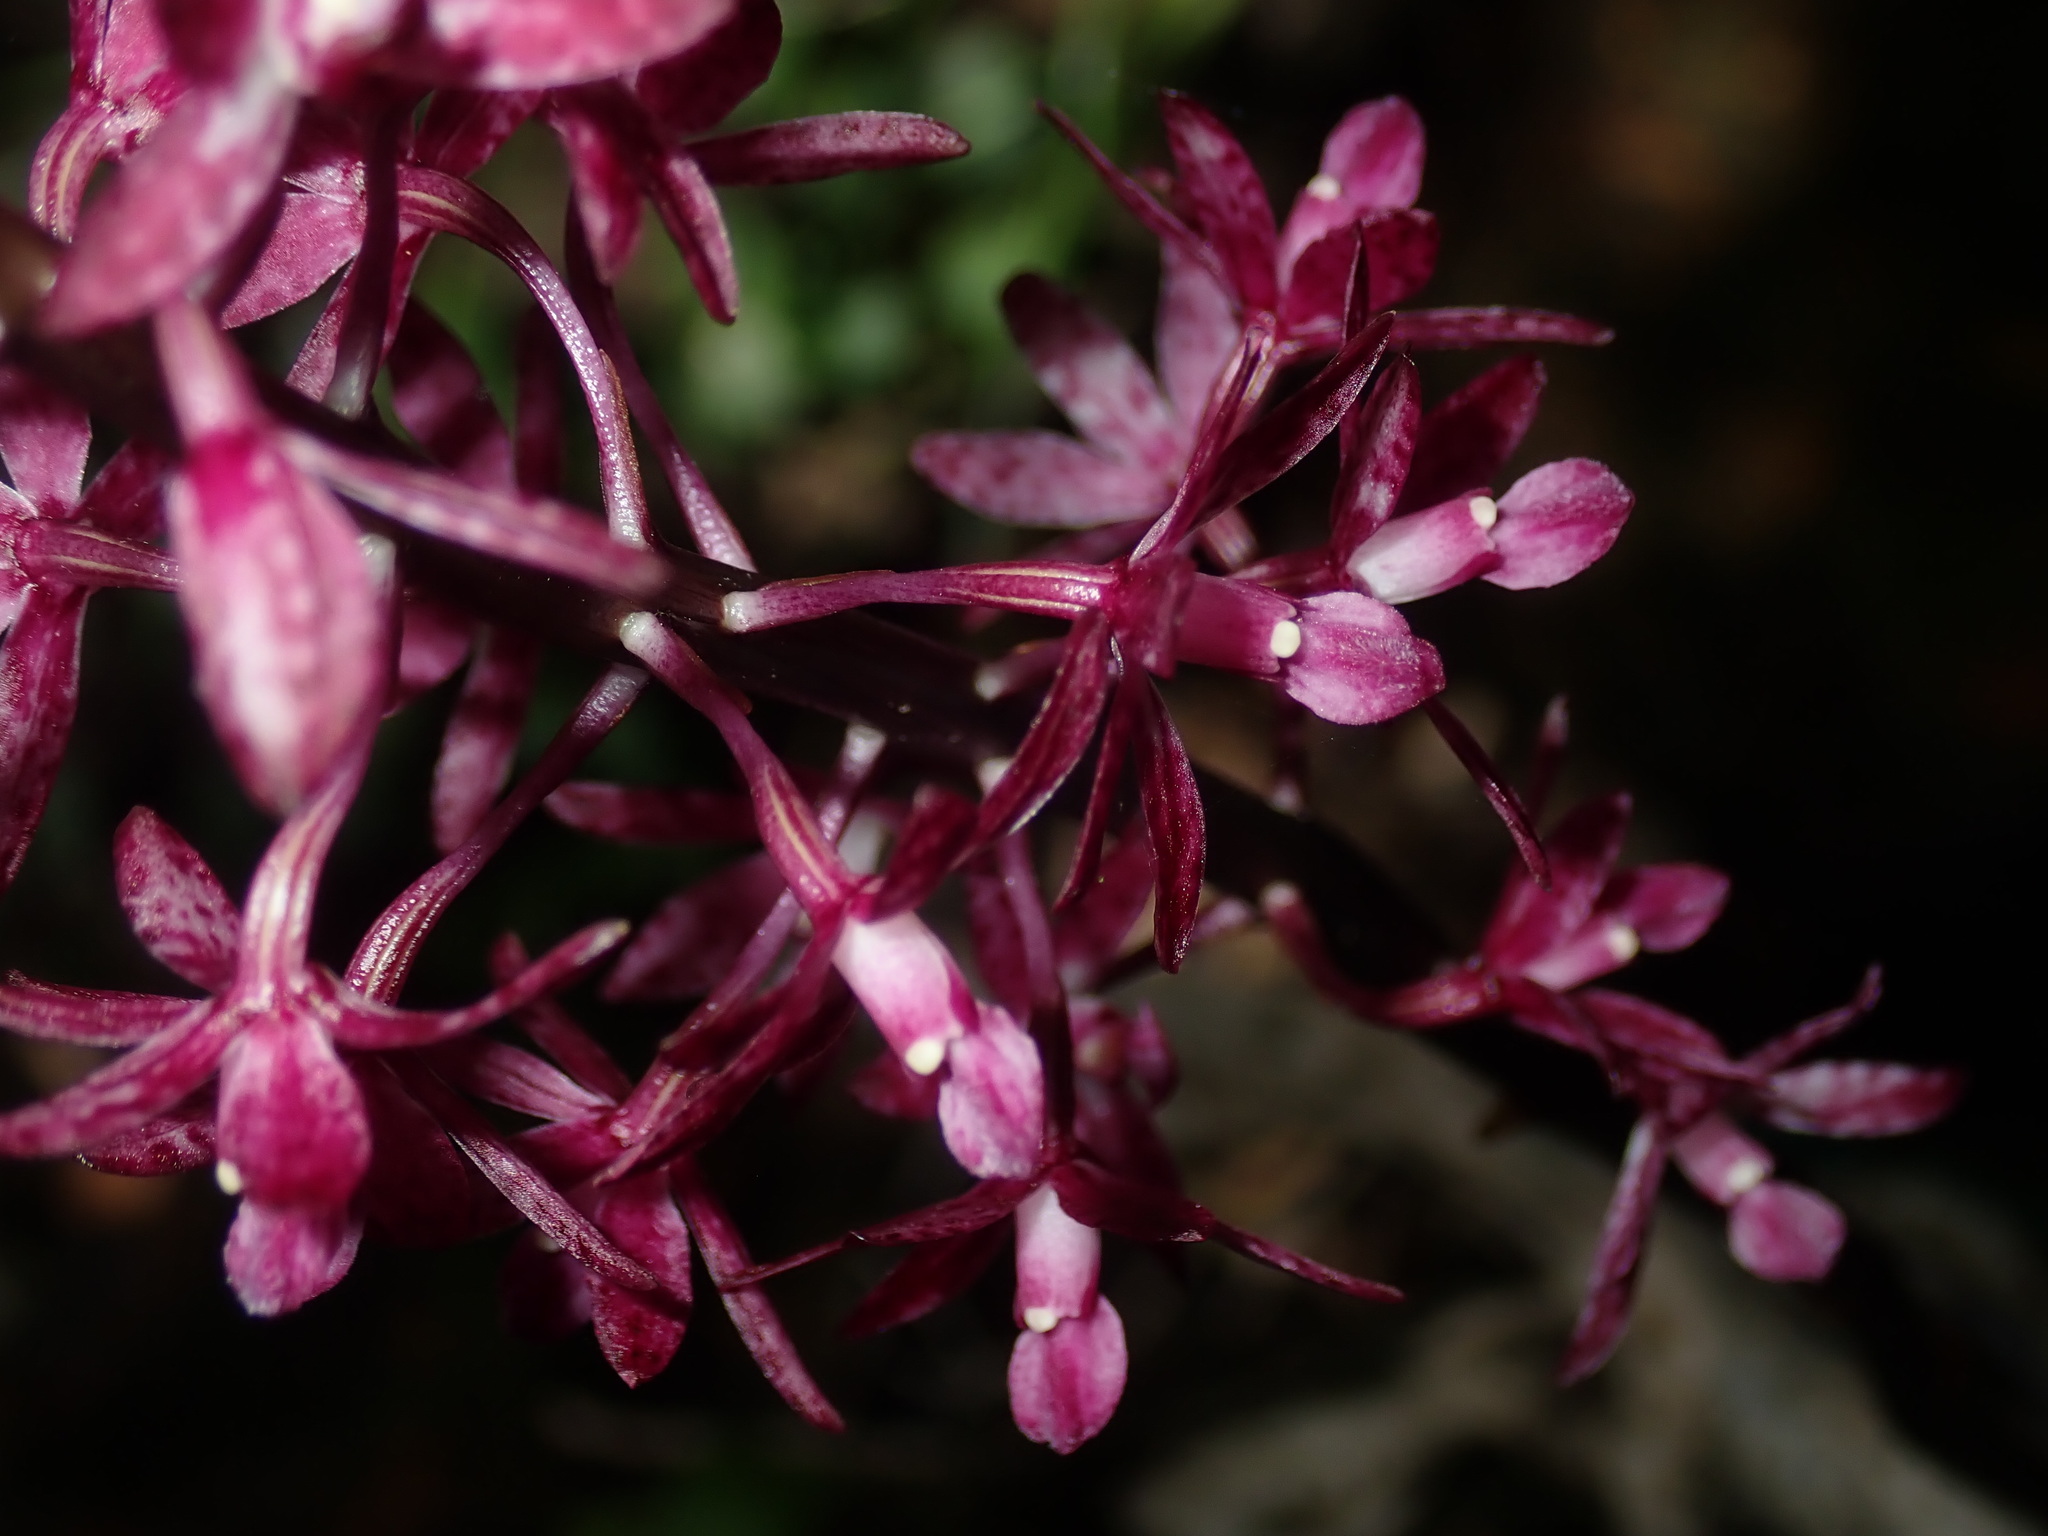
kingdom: Plantae
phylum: Tracheophyta
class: Liliopsida
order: Asparagales
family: Orchidaceae
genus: Dipodium
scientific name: Dipodium squamatum
